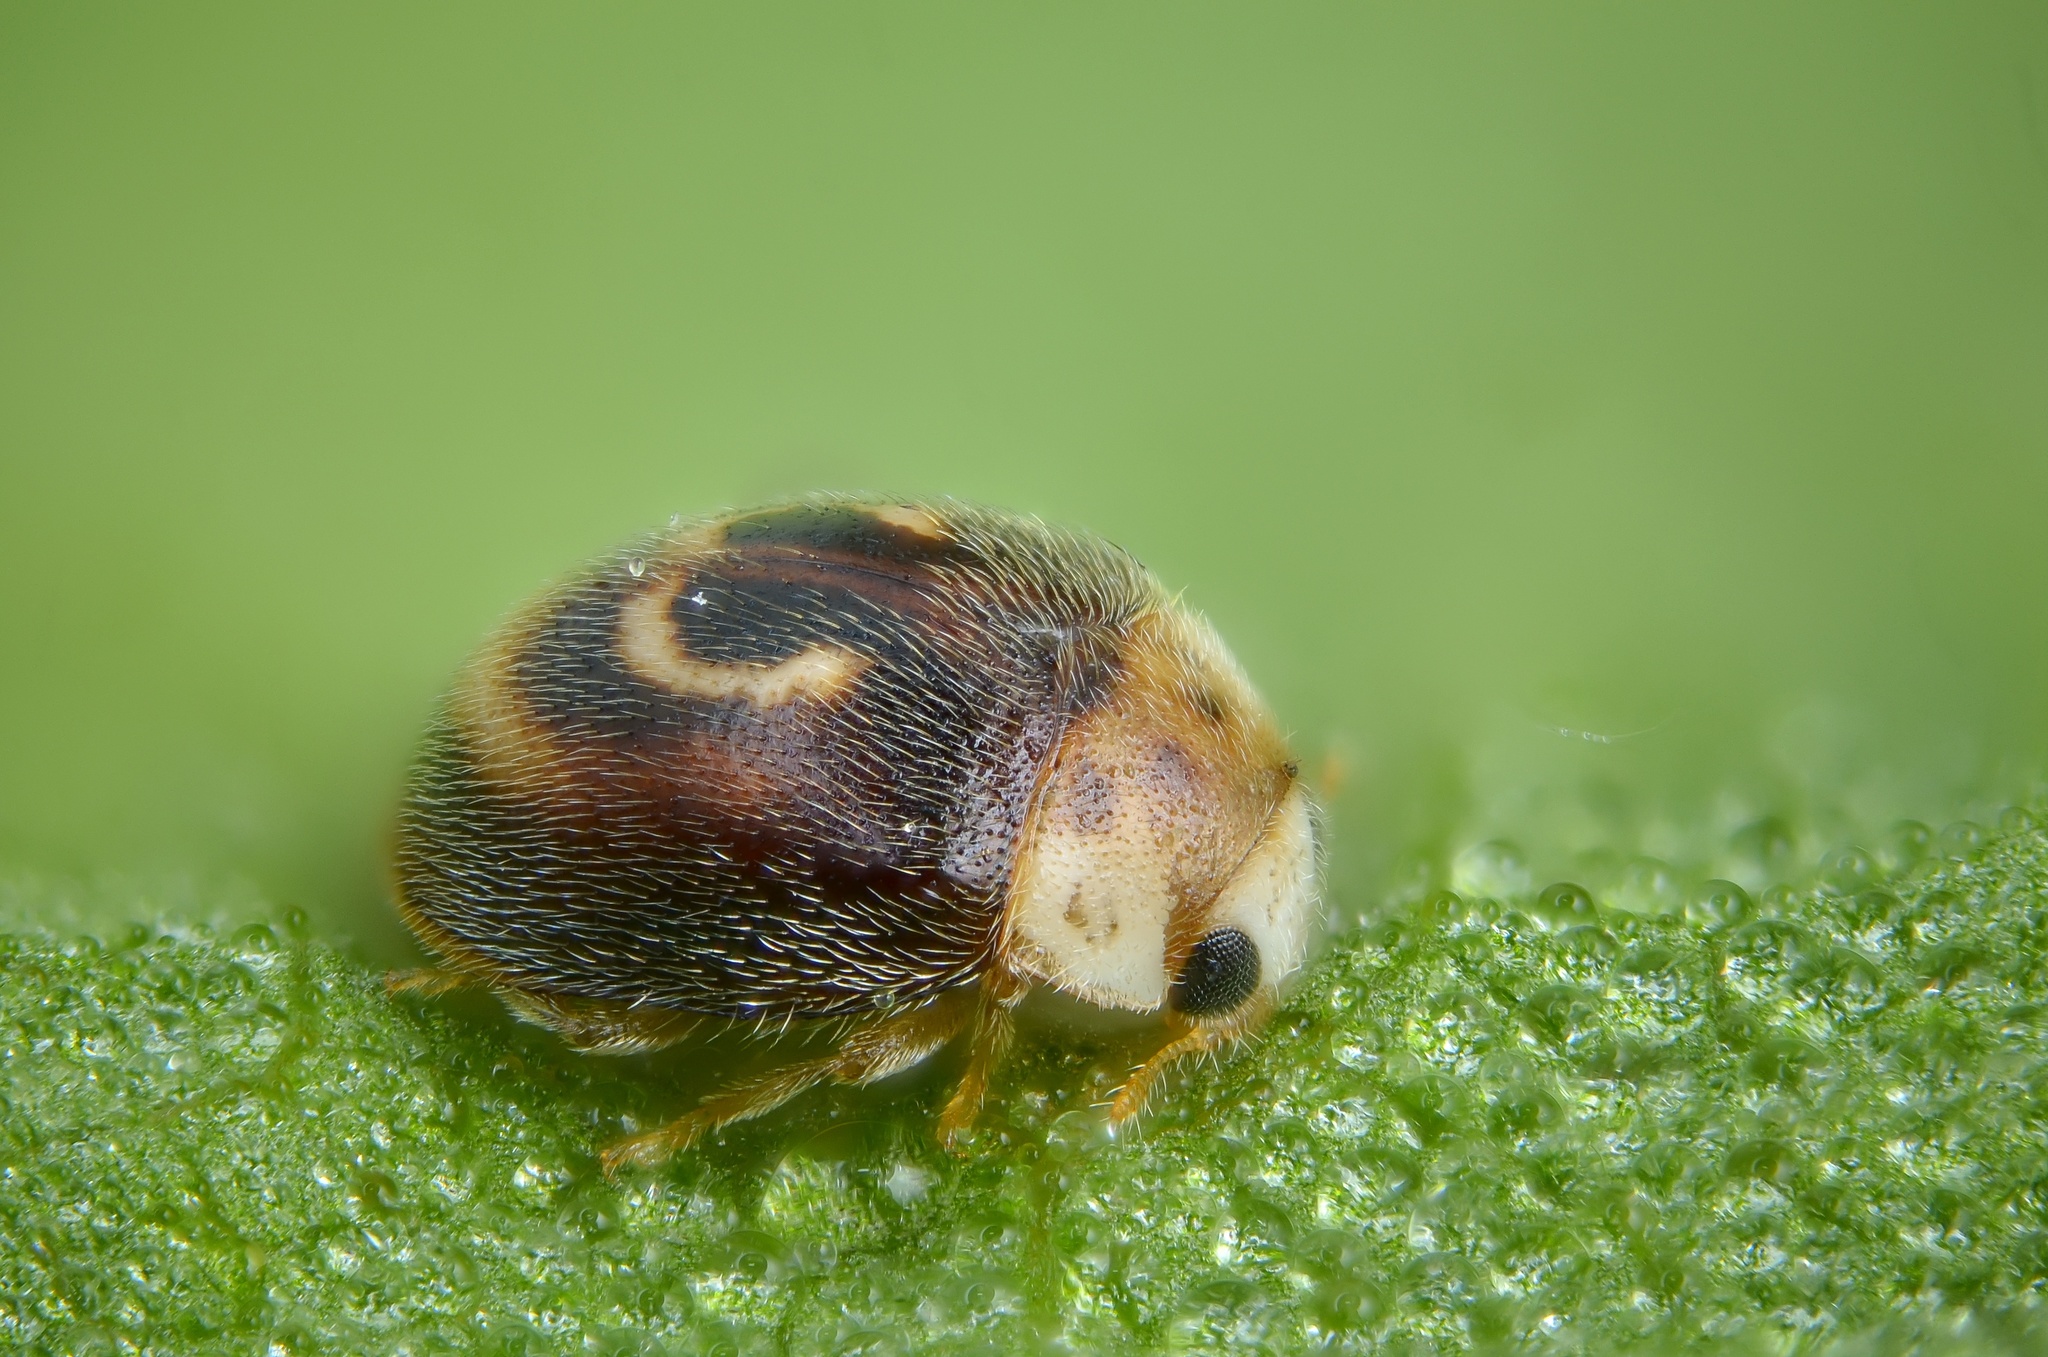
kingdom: Animalia
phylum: Arthropoda
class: Insecta
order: Coleoptera
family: Coccinellidae
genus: Clitostethus
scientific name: Clitostethus arcuatus
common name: Ladybird beetle
